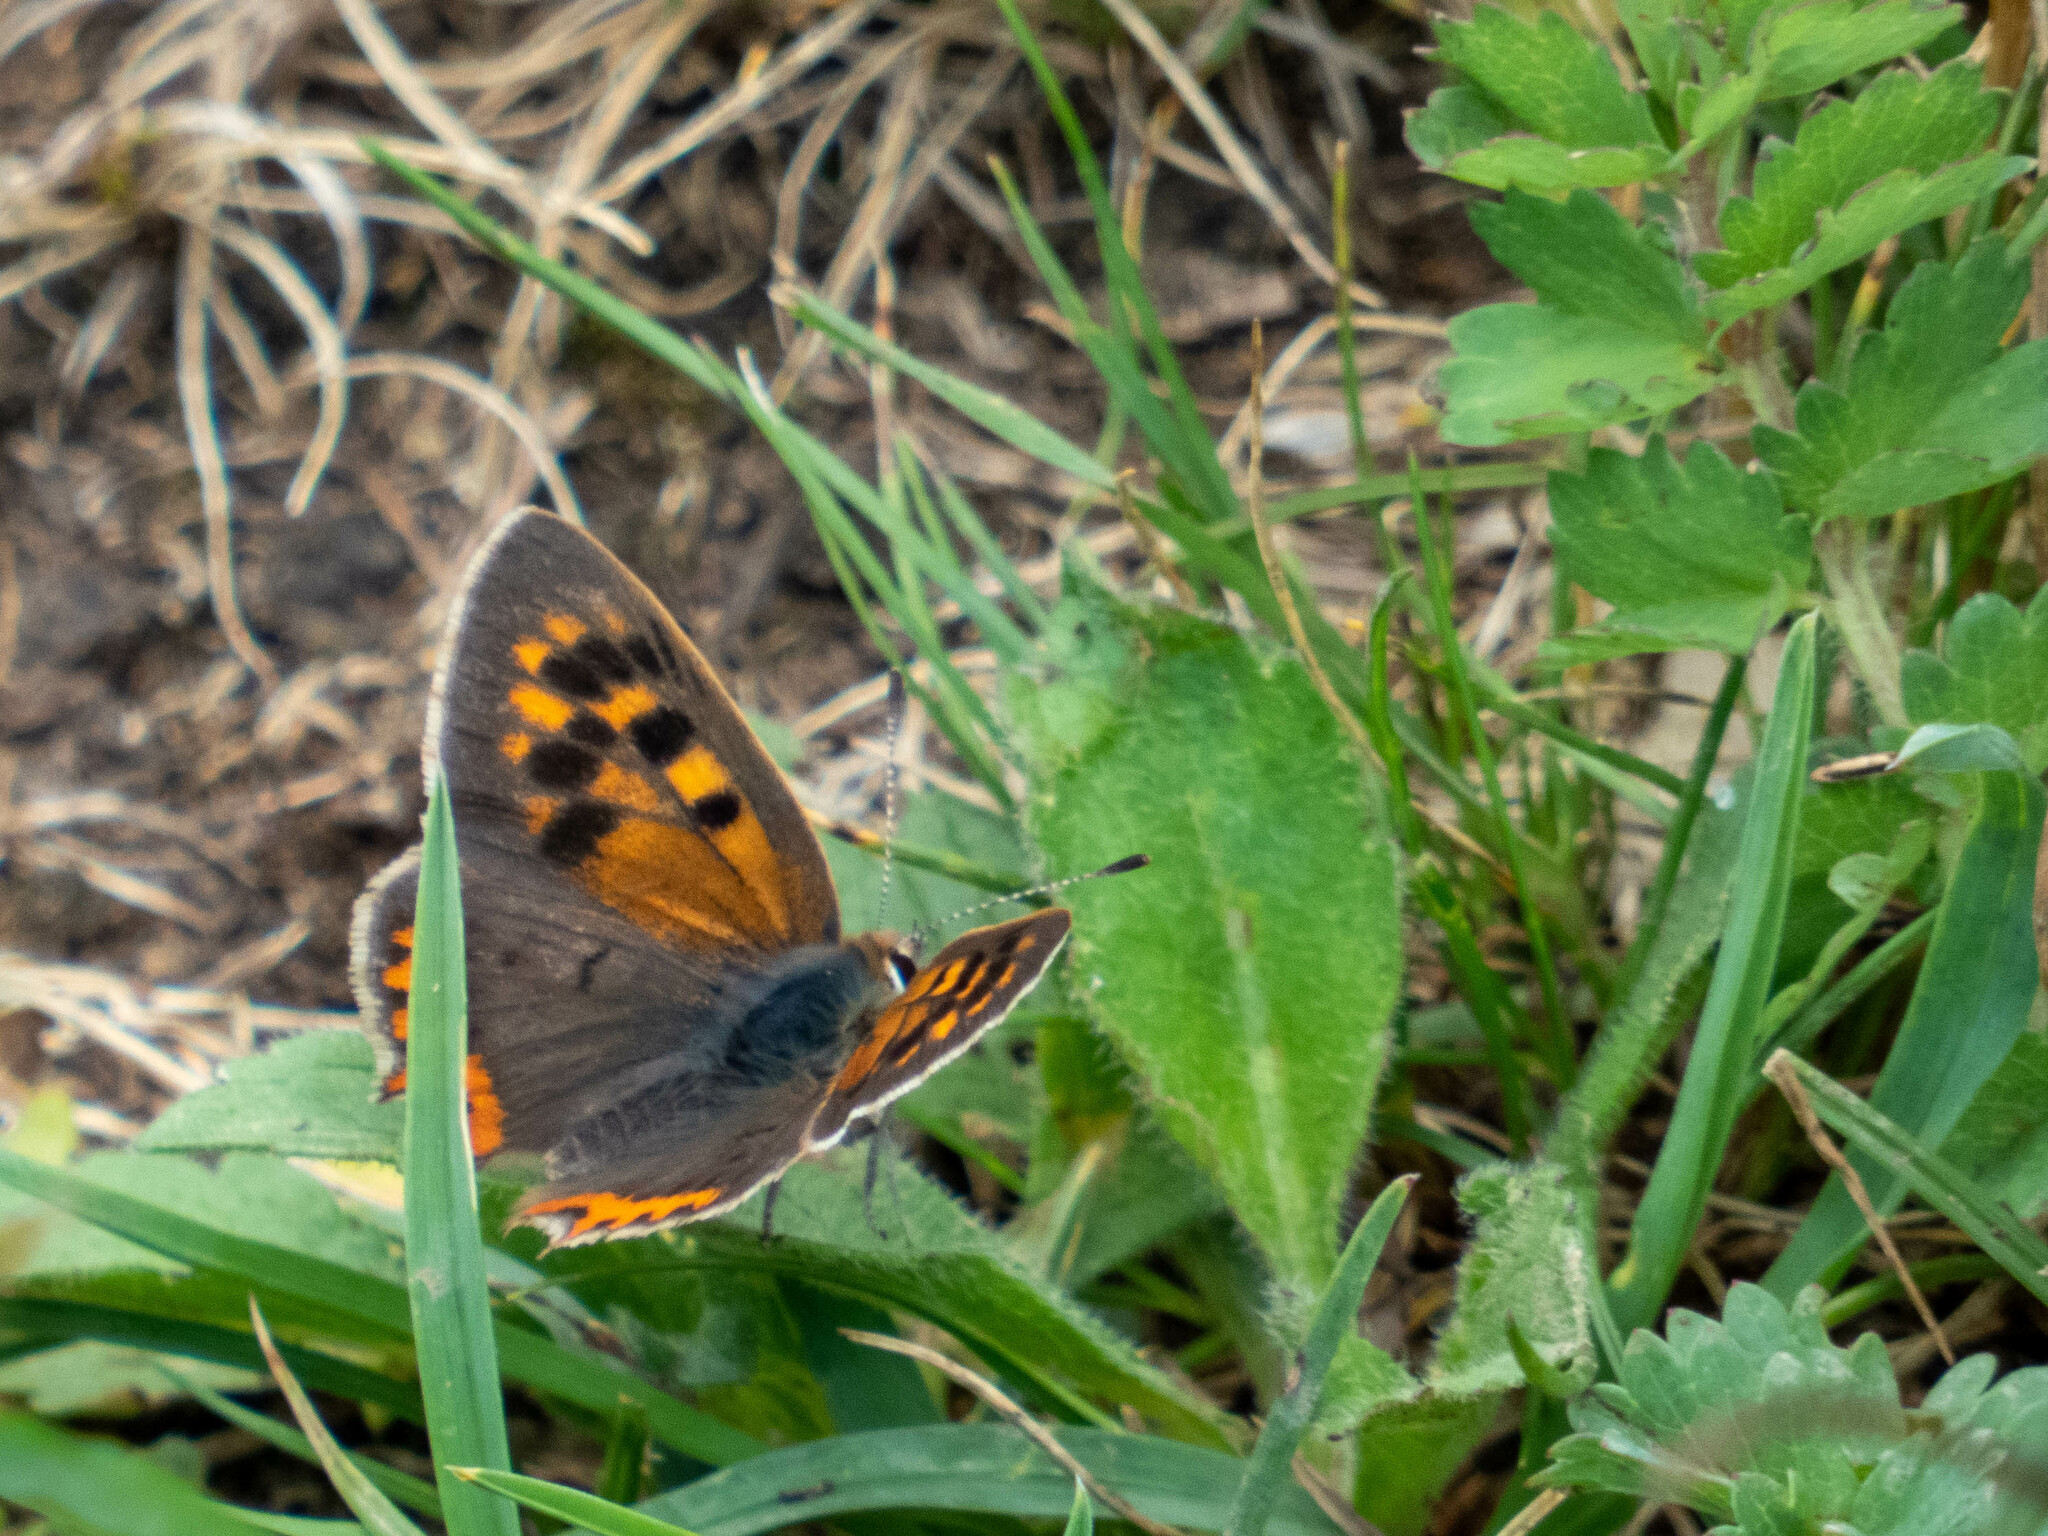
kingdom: Animalia
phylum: Arthropoda
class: Insecta
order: Lepidoptera
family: Lycaenidae
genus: Lycaena
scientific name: Lycaena phlaeas
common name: Small copper
